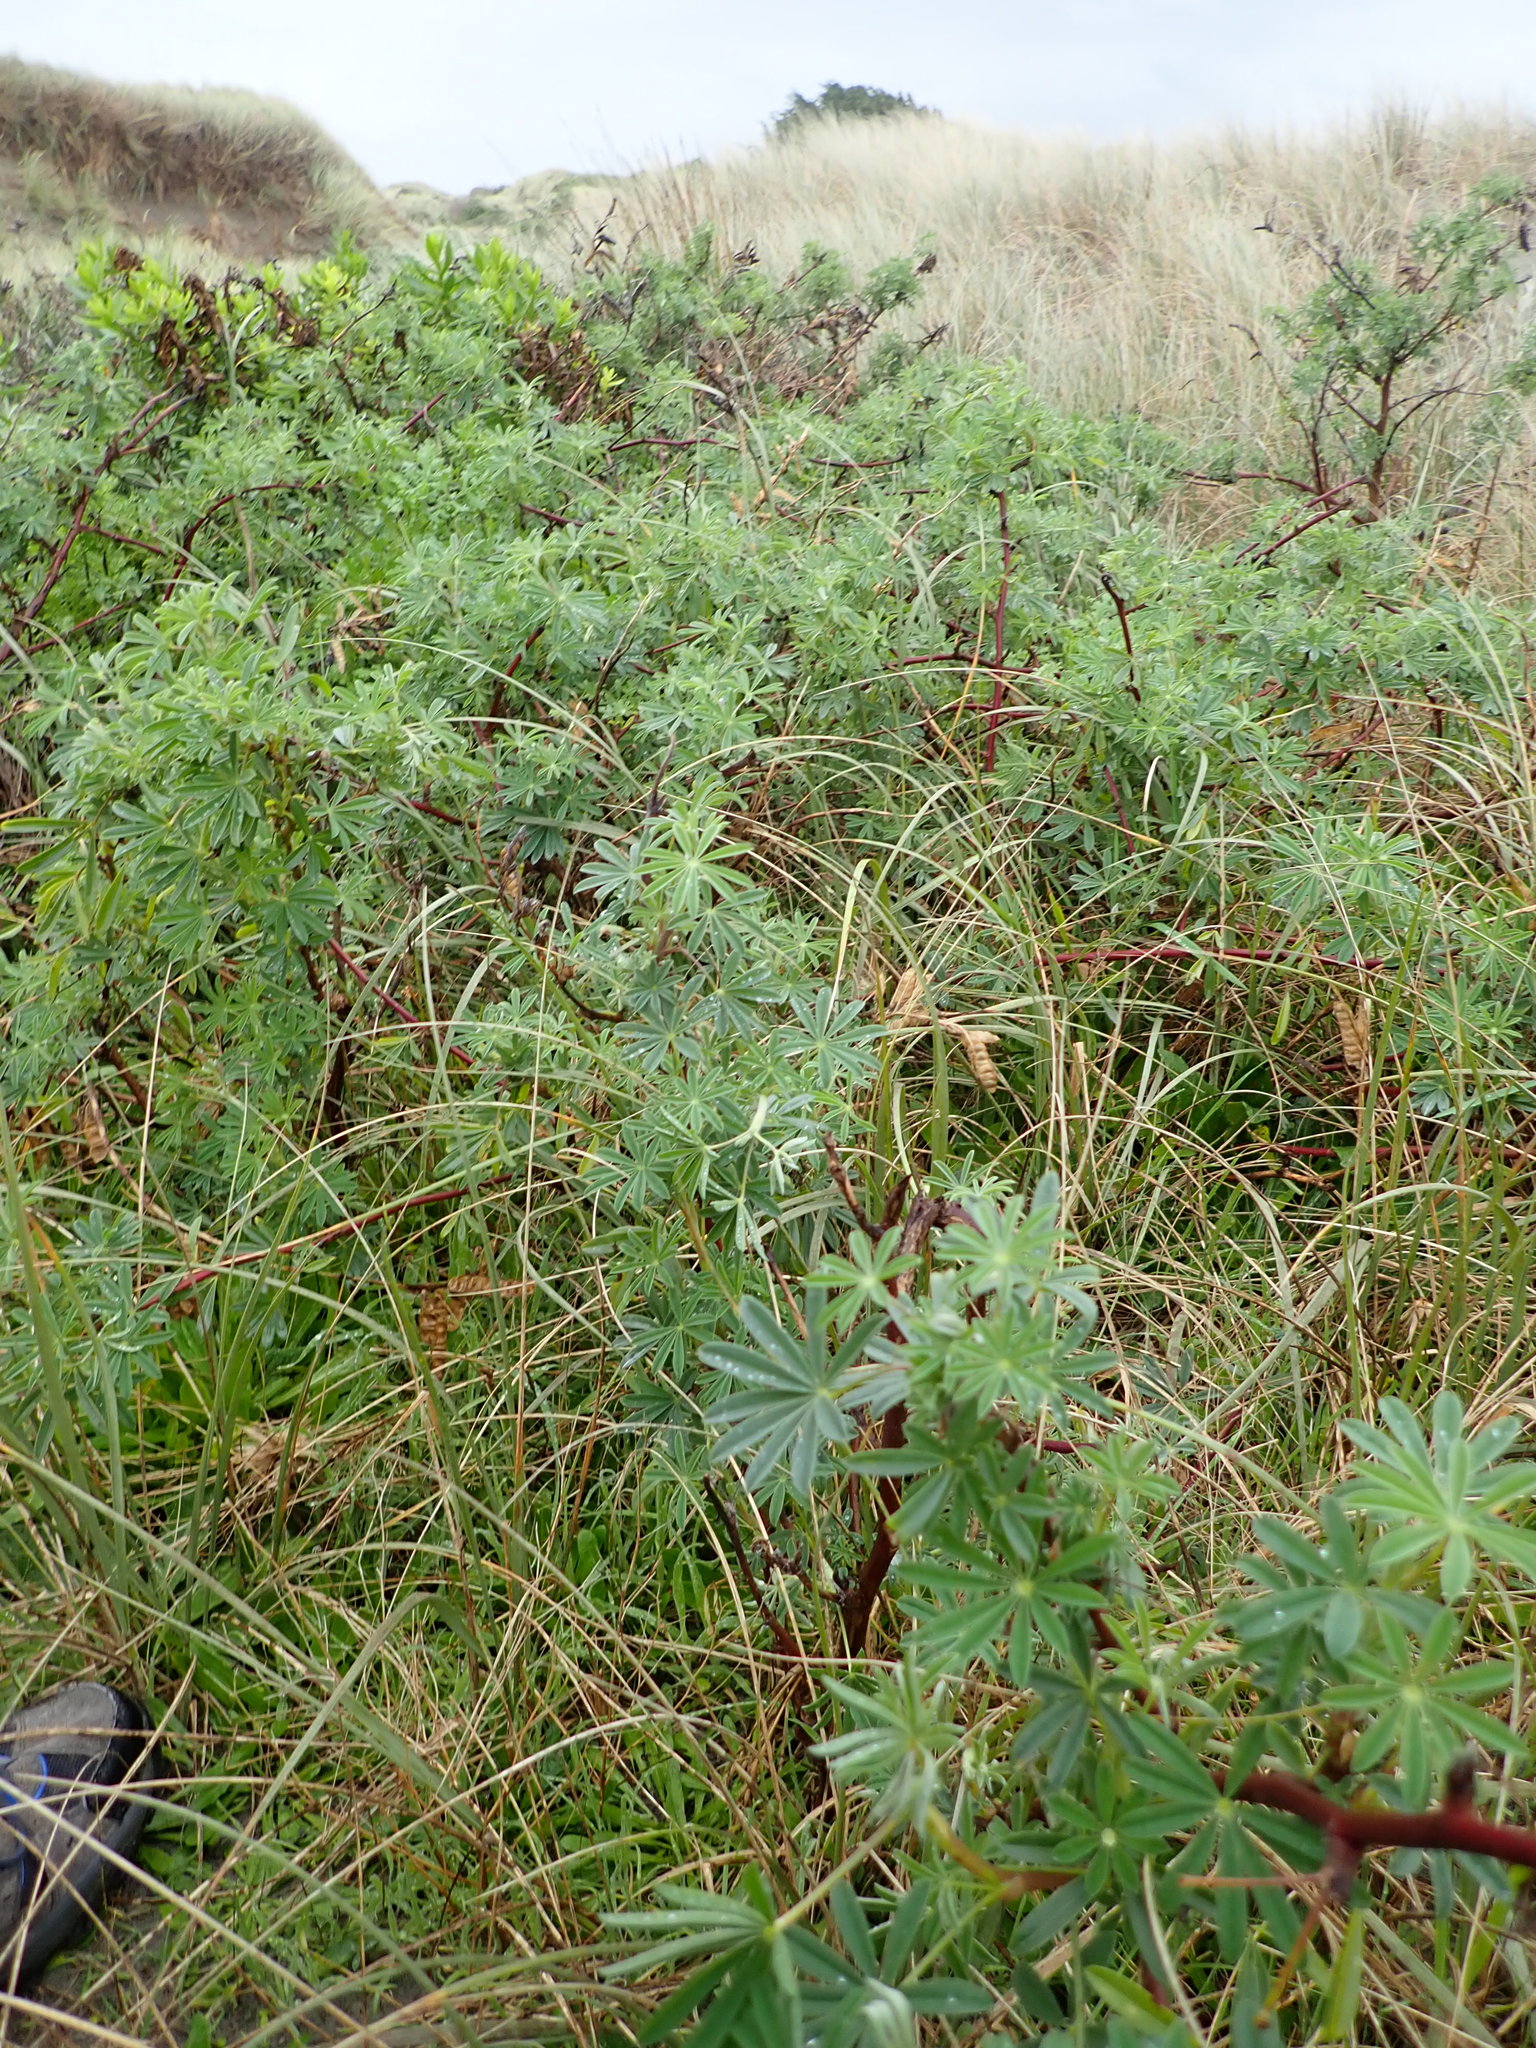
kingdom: Plantae
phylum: Tracheophyta
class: Magnoliopsida
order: Fabales
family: Fabaceae
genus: Lupinus
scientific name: Lupinus arboreus
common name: Yellow bush lupine
